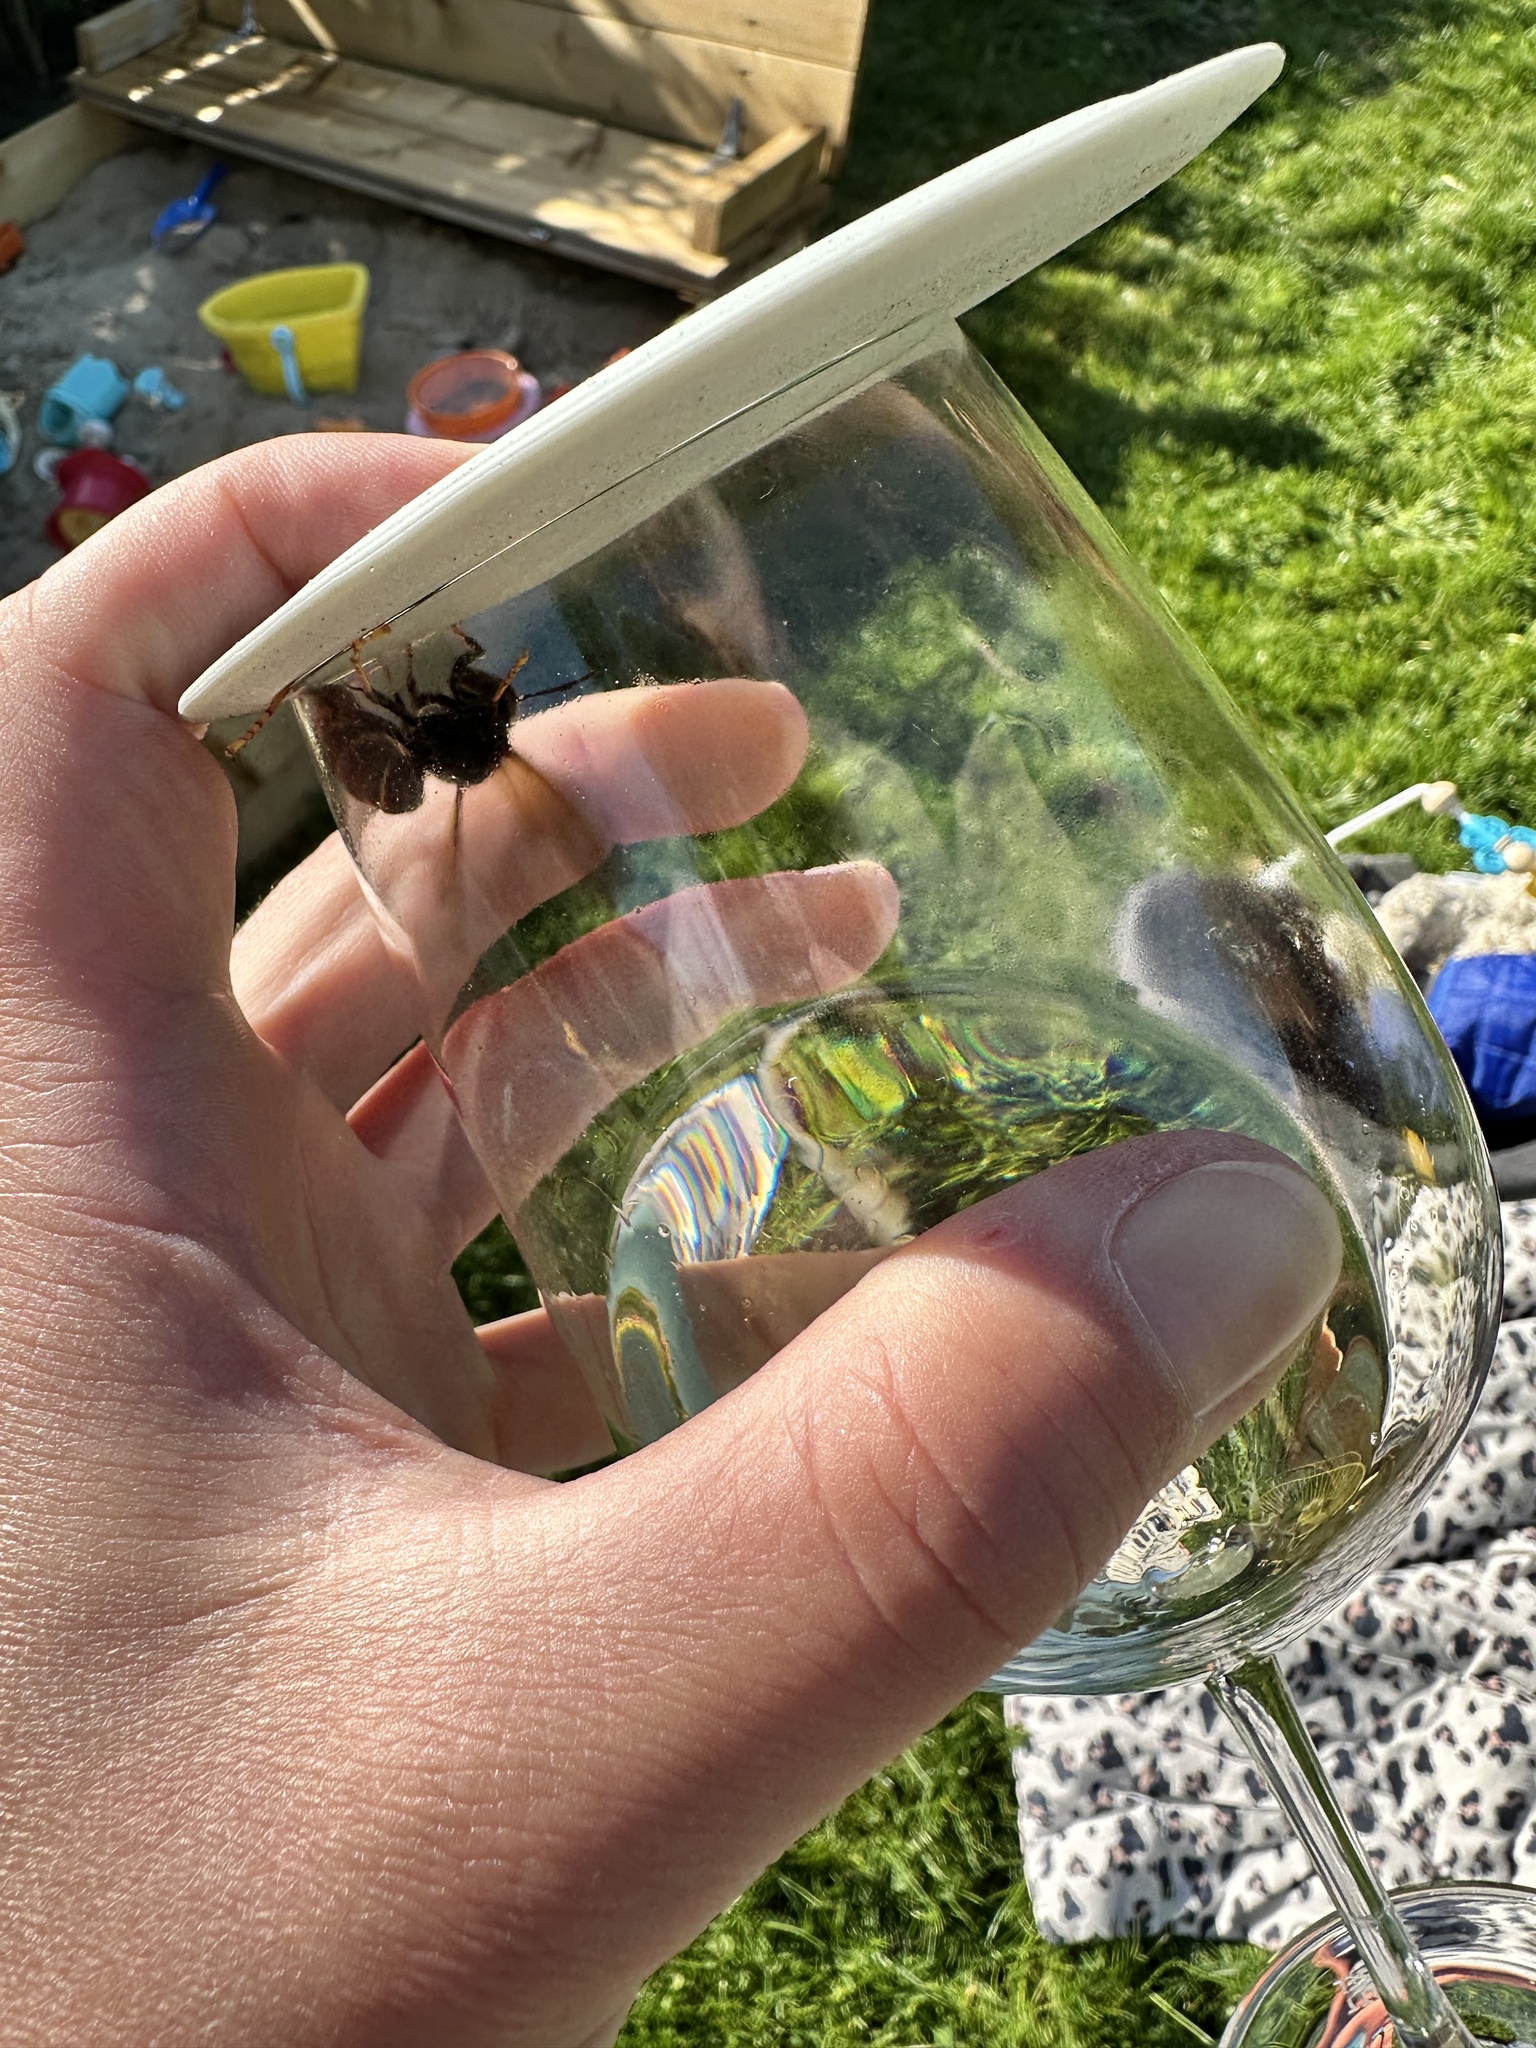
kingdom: Animalia
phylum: Arthropoda
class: Insecta
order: Hymenoptera
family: Vespidae
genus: Vespa
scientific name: Vespa velutina
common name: Asian hornet
